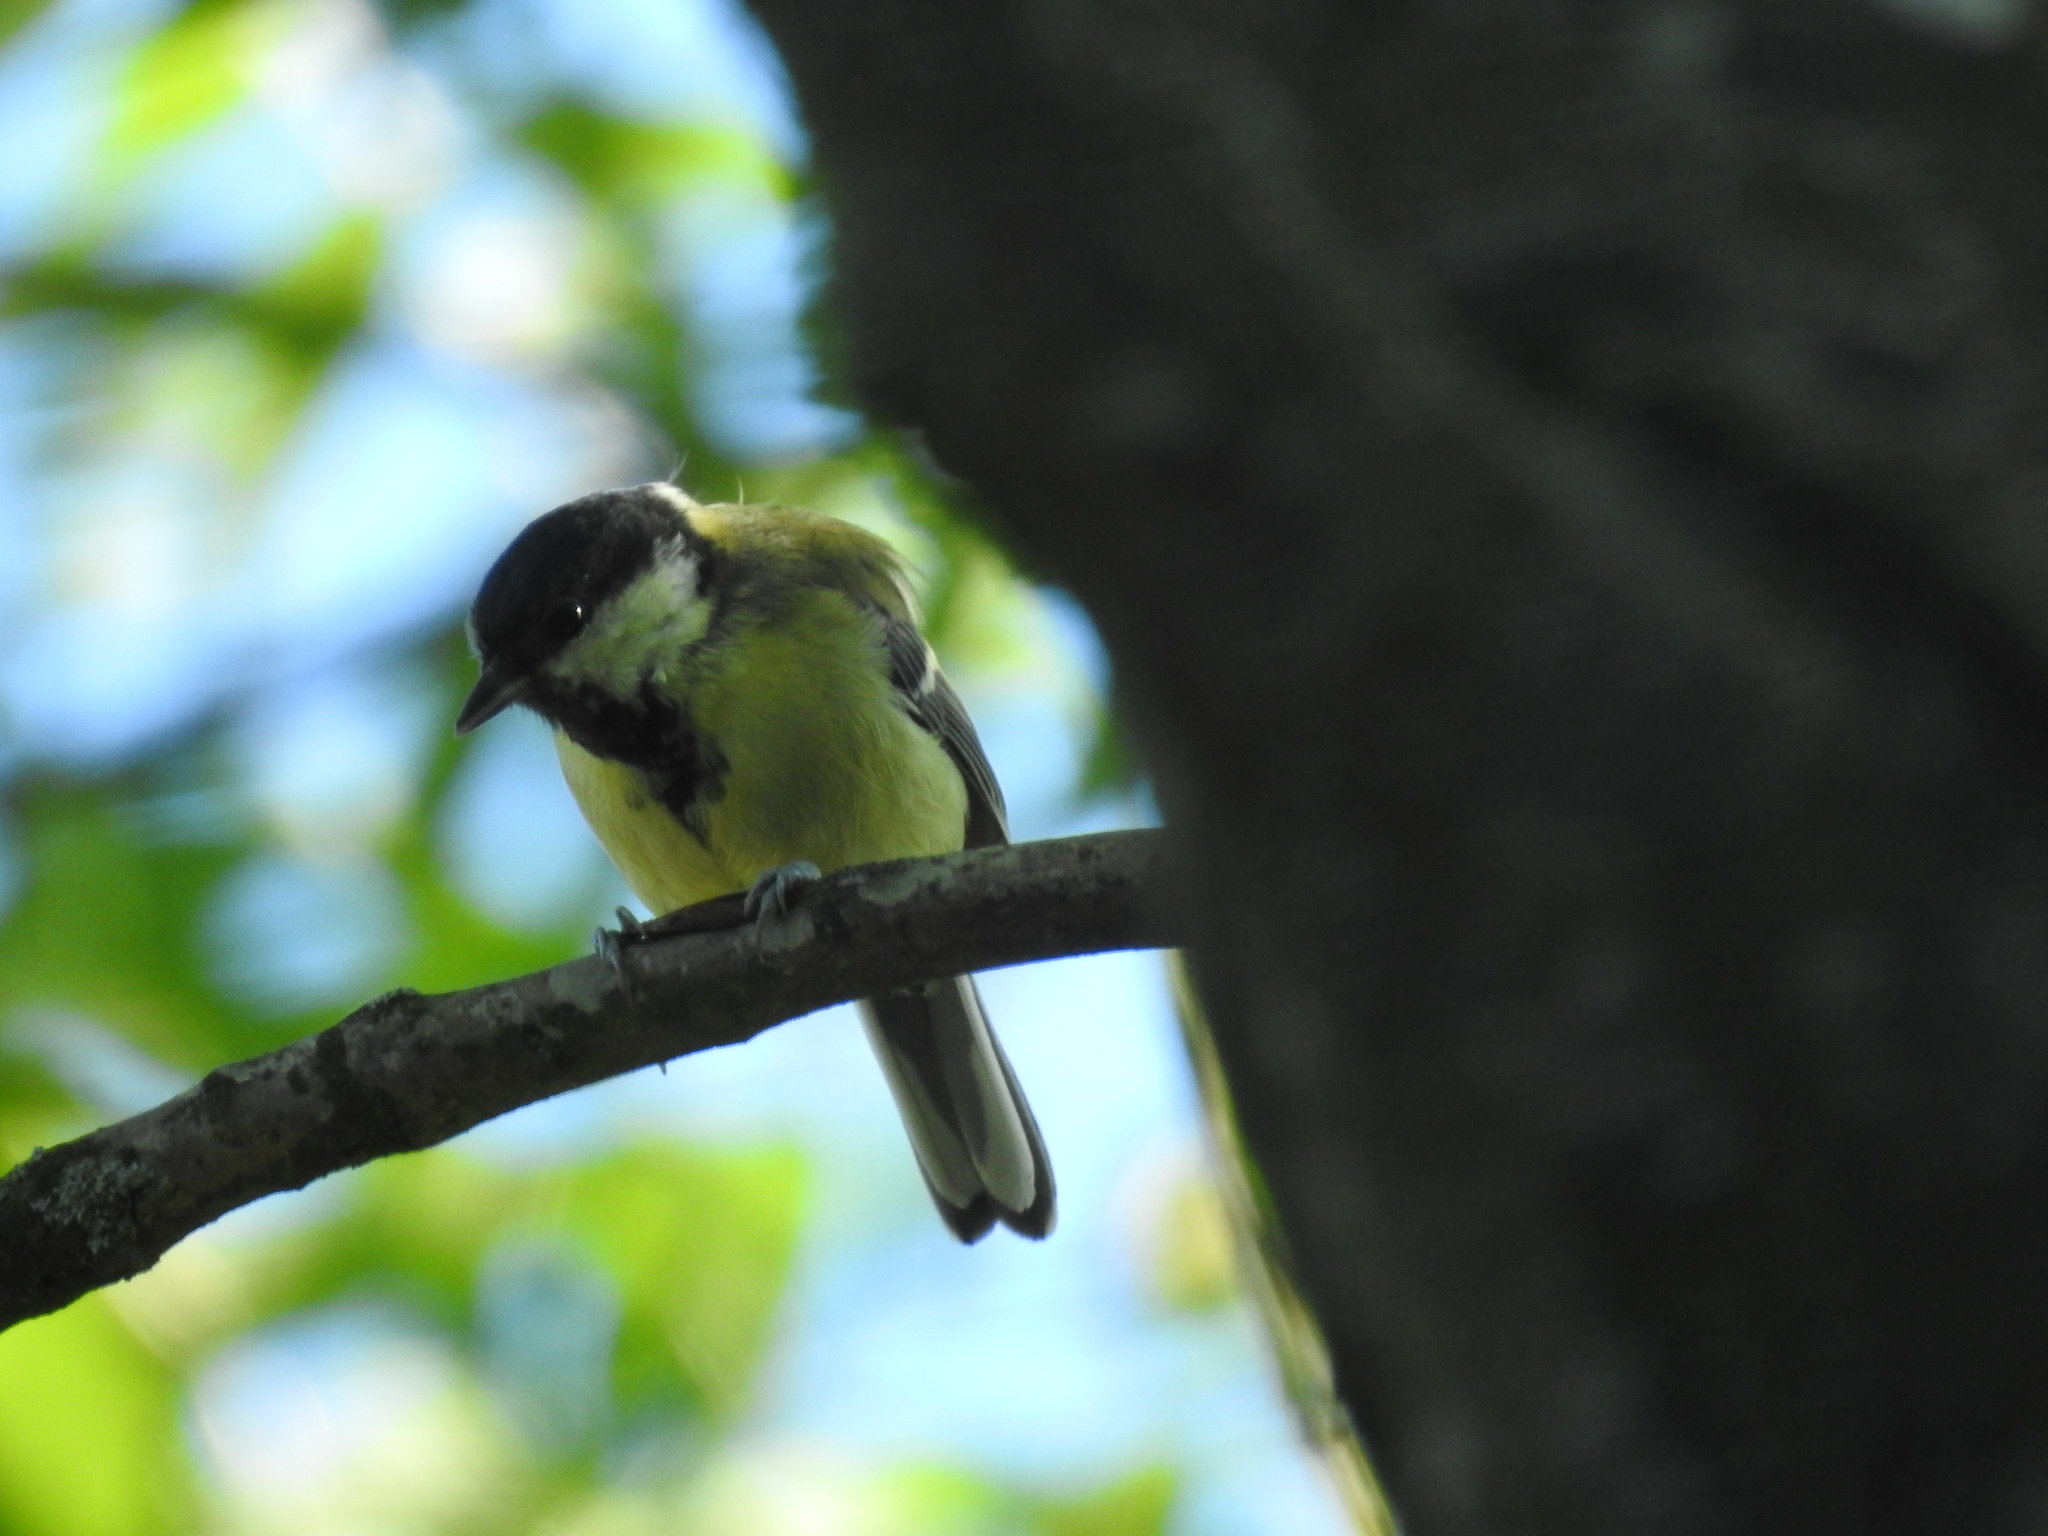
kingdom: Animalia
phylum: Chordata
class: Aves
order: Passeriformes
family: Paridae
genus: Parus
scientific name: Parus major
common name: Great tit
